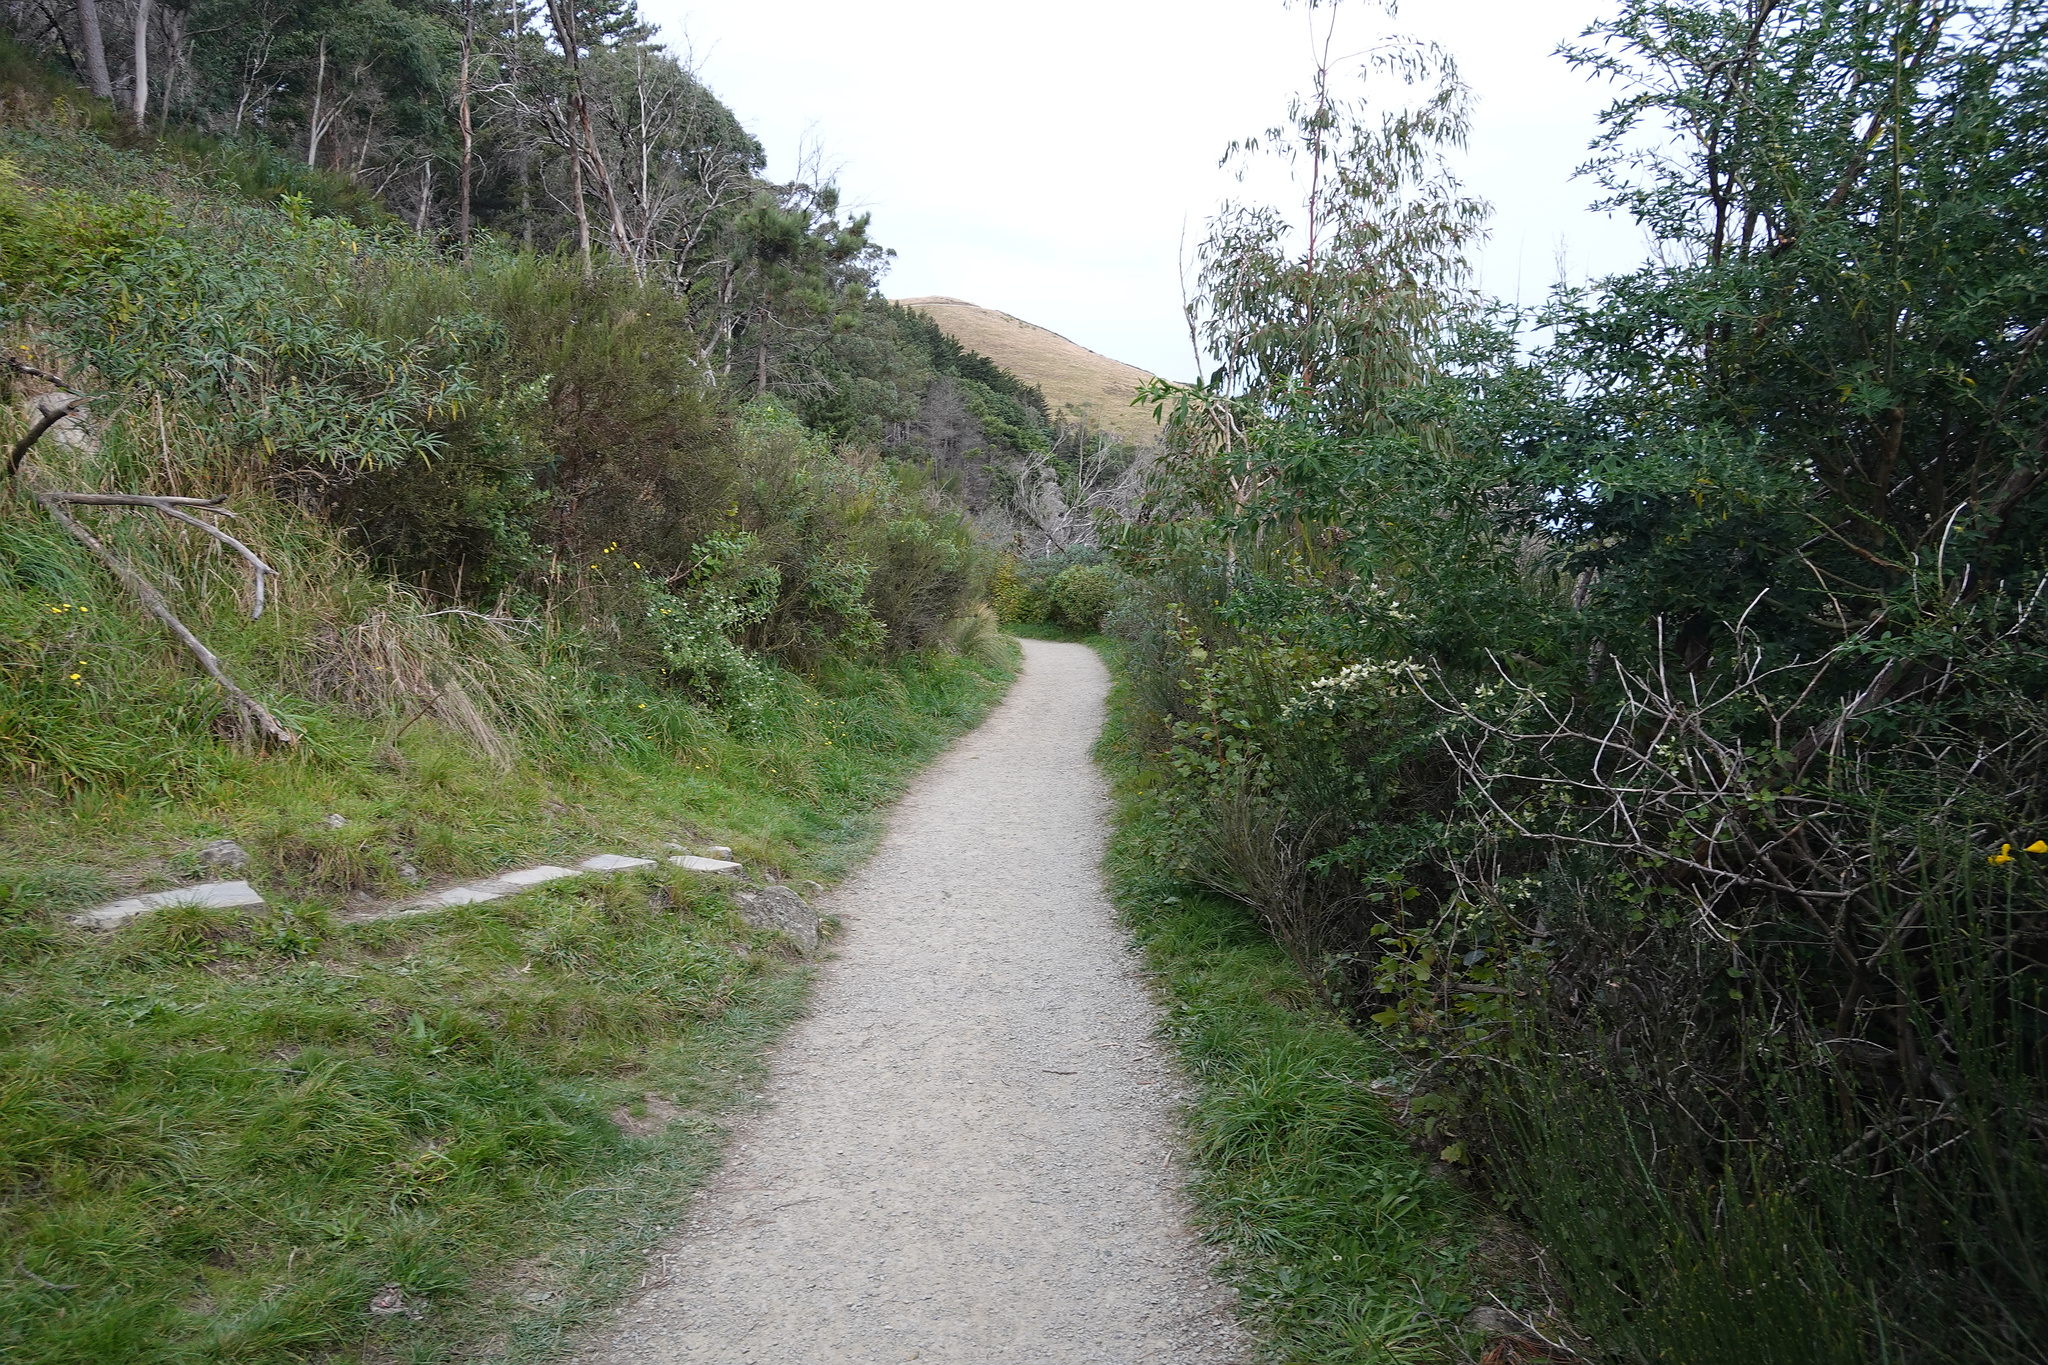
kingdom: Plantae
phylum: Tracheophyta
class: Magnoliopsida
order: Fabales
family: Fabaceae
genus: Chamaecytisus
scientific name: Chamaecytisus prolifer
